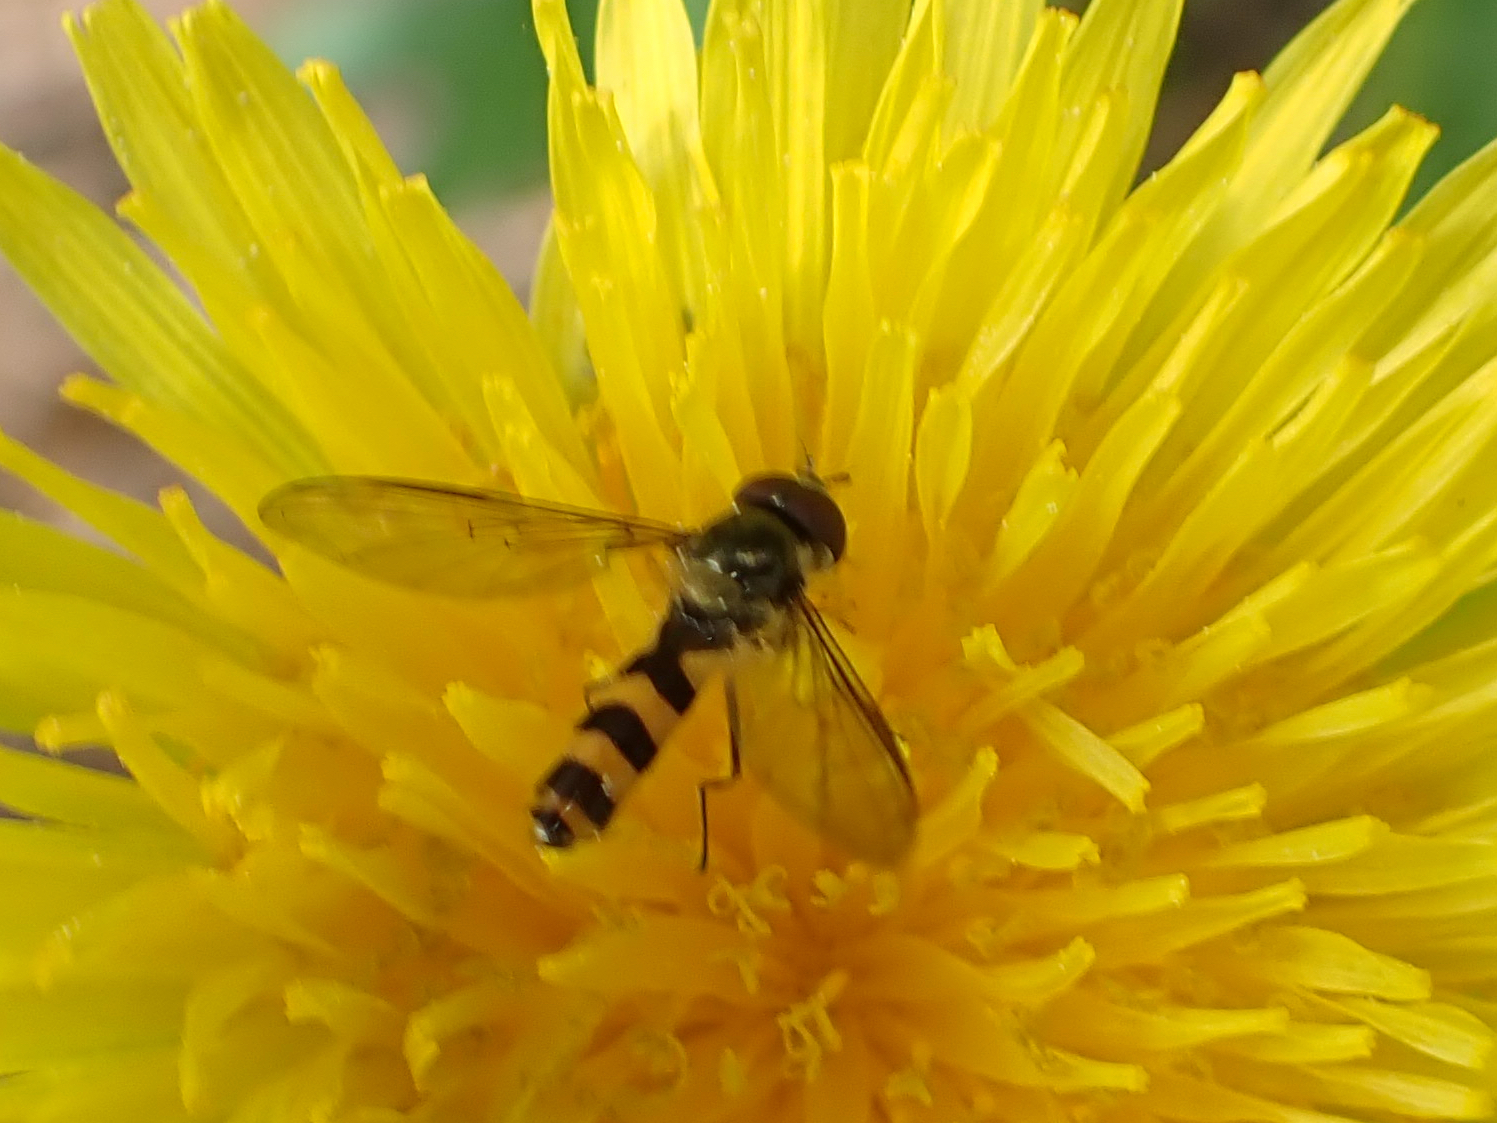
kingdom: Animalia
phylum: Arthropoda
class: Insecta
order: Diptera
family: Syrphidae
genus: Meliscaeva
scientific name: Meliscaeva cinctella
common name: American thintail fly
